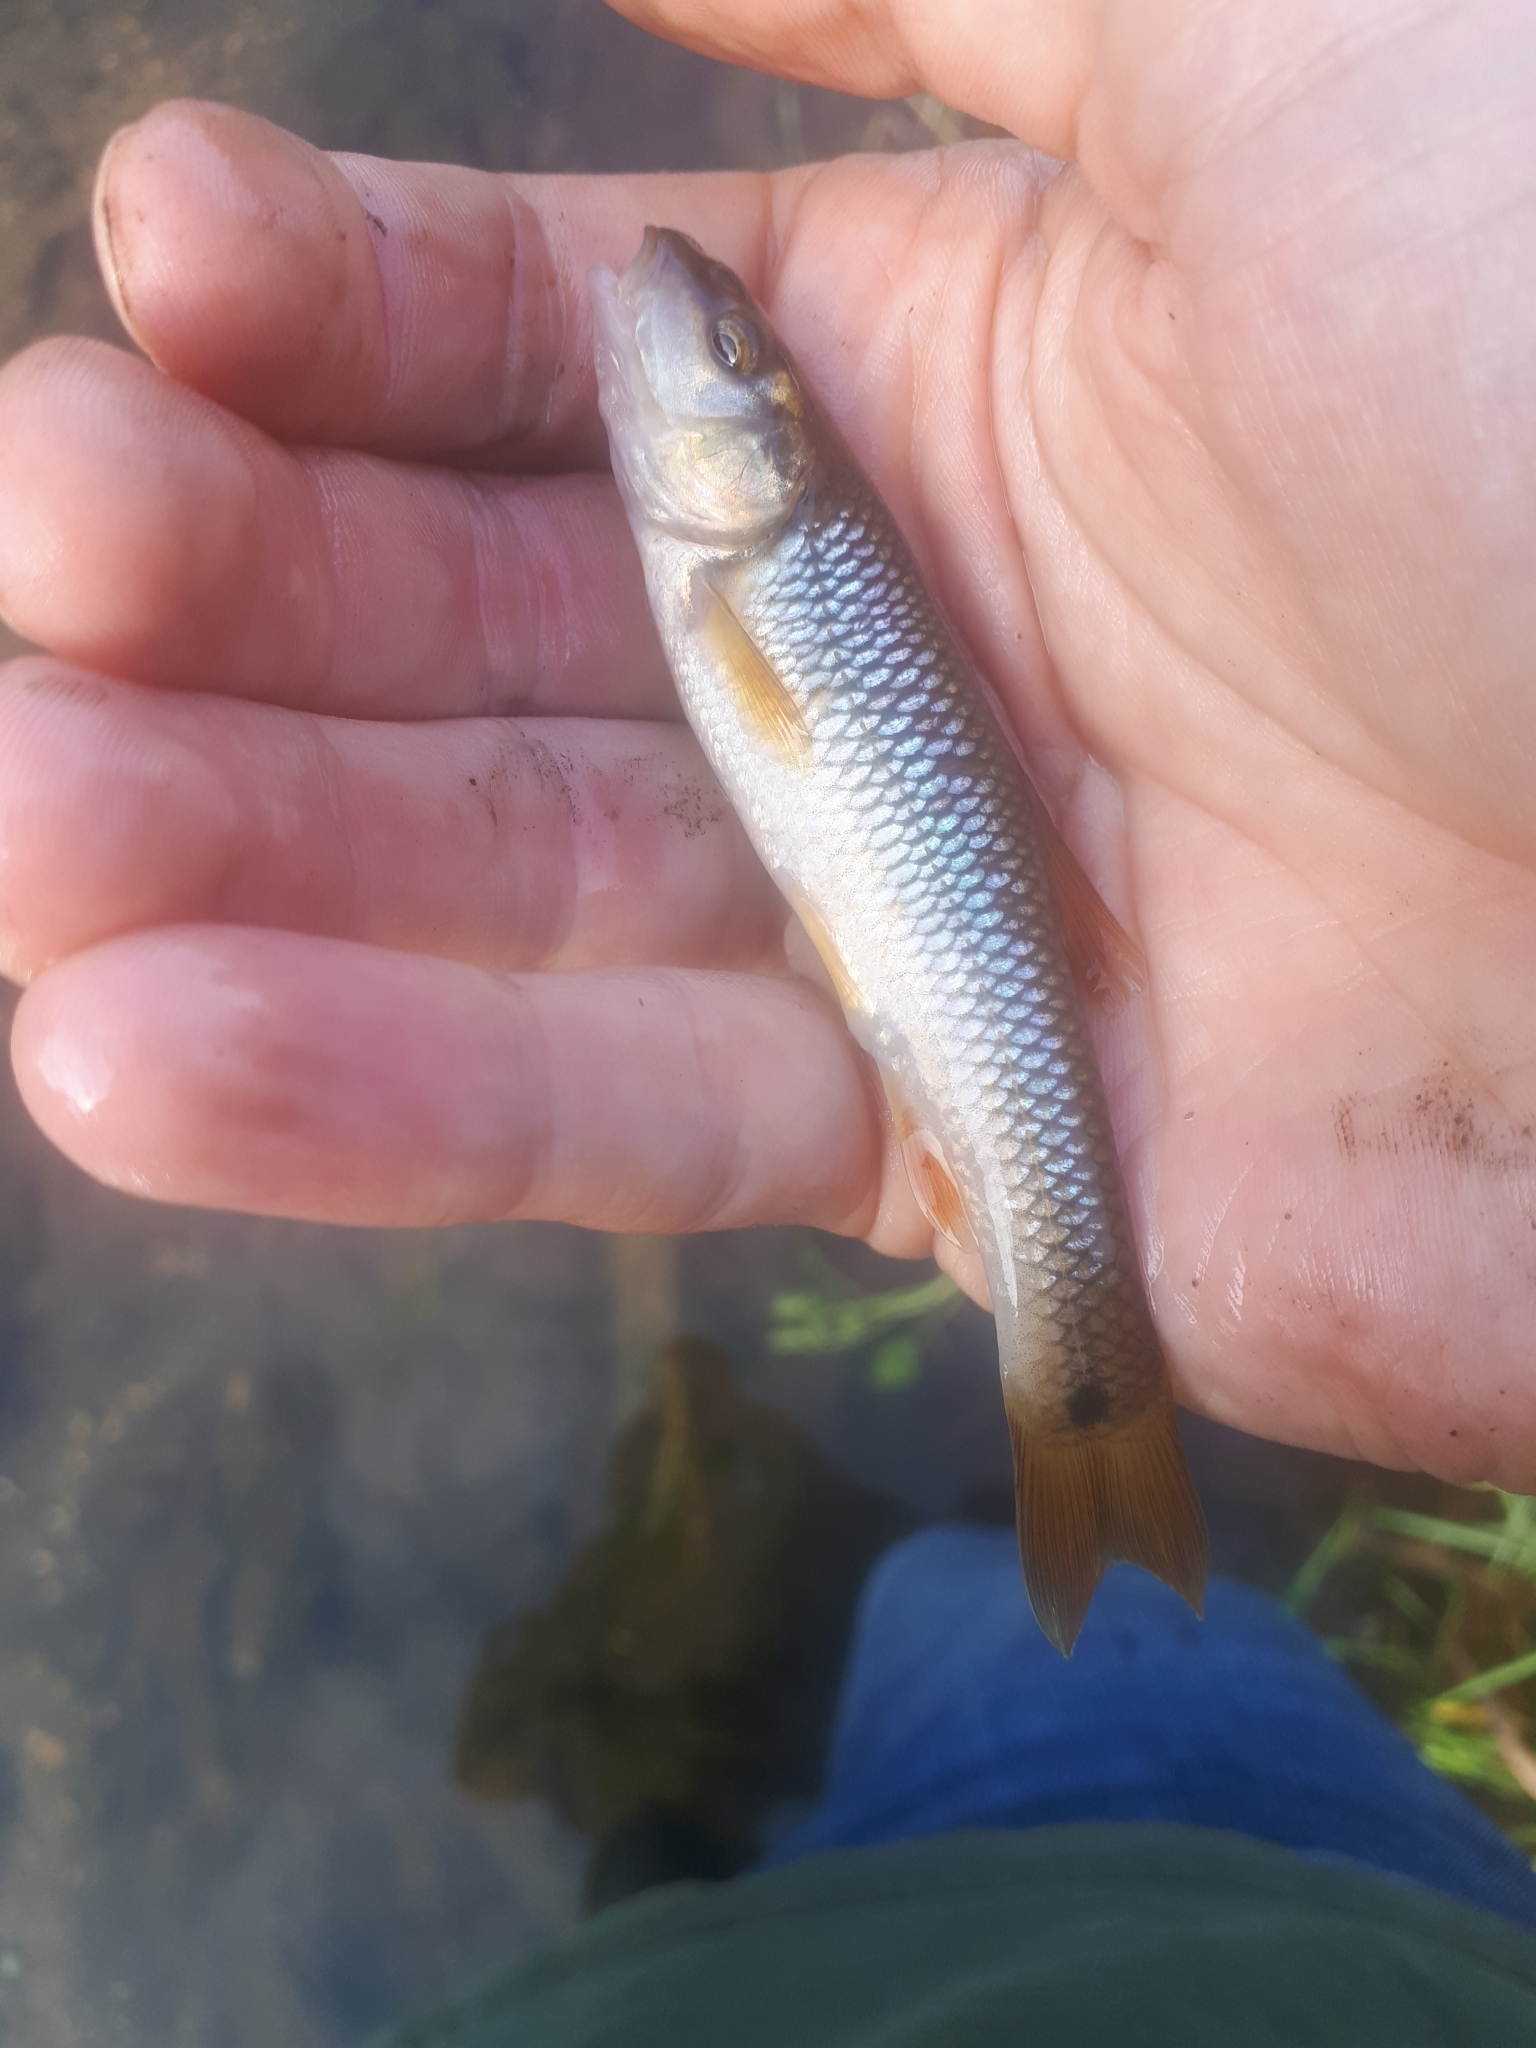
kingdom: Animalia
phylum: Chordata
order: Cypriniformes
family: Cyprinidae
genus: Nocomis
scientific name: Nocomis biguttatus
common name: Hornyhead chub
